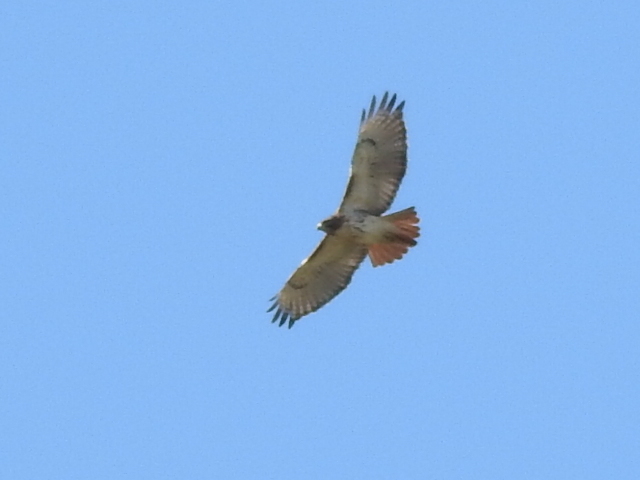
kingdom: Animalia
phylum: Chordata
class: Aves
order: Accipitriformes
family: Accipitridae
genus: Buteo
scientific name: Buteo jamaicensis
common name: Red-tailed hawk
